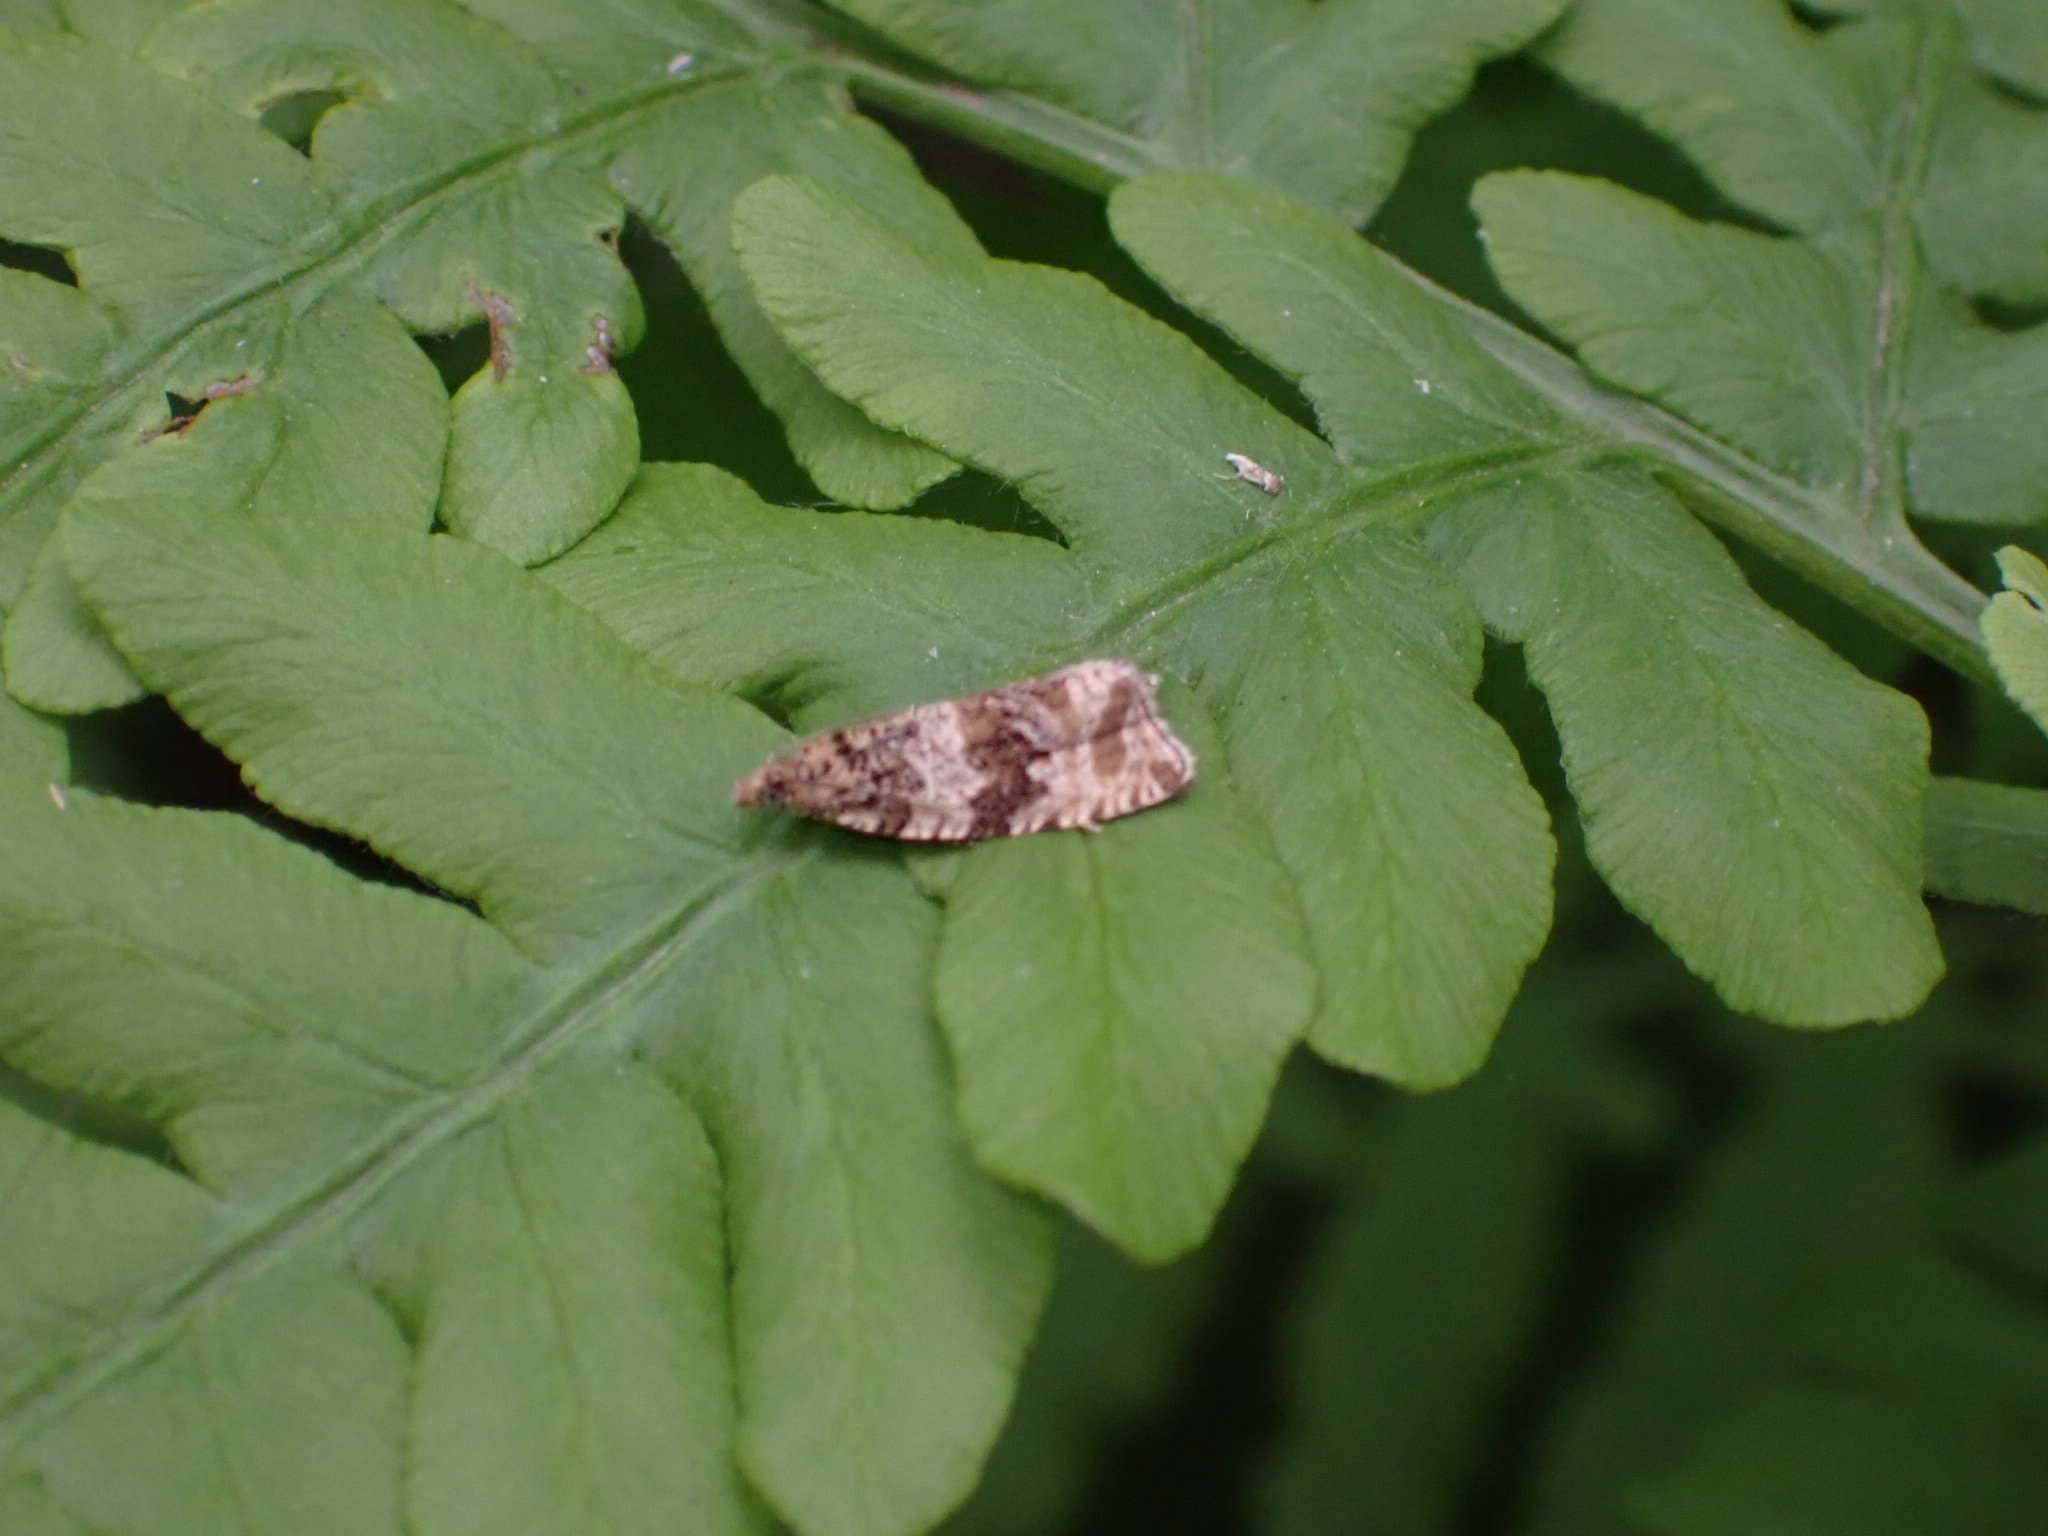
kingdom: Animalia
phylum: Arthropoda
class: Insecta
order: Lepidoptera
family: Tortricidae
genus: Orthotaenia
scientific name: Orthotaenia undulana
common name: Woodland marble
